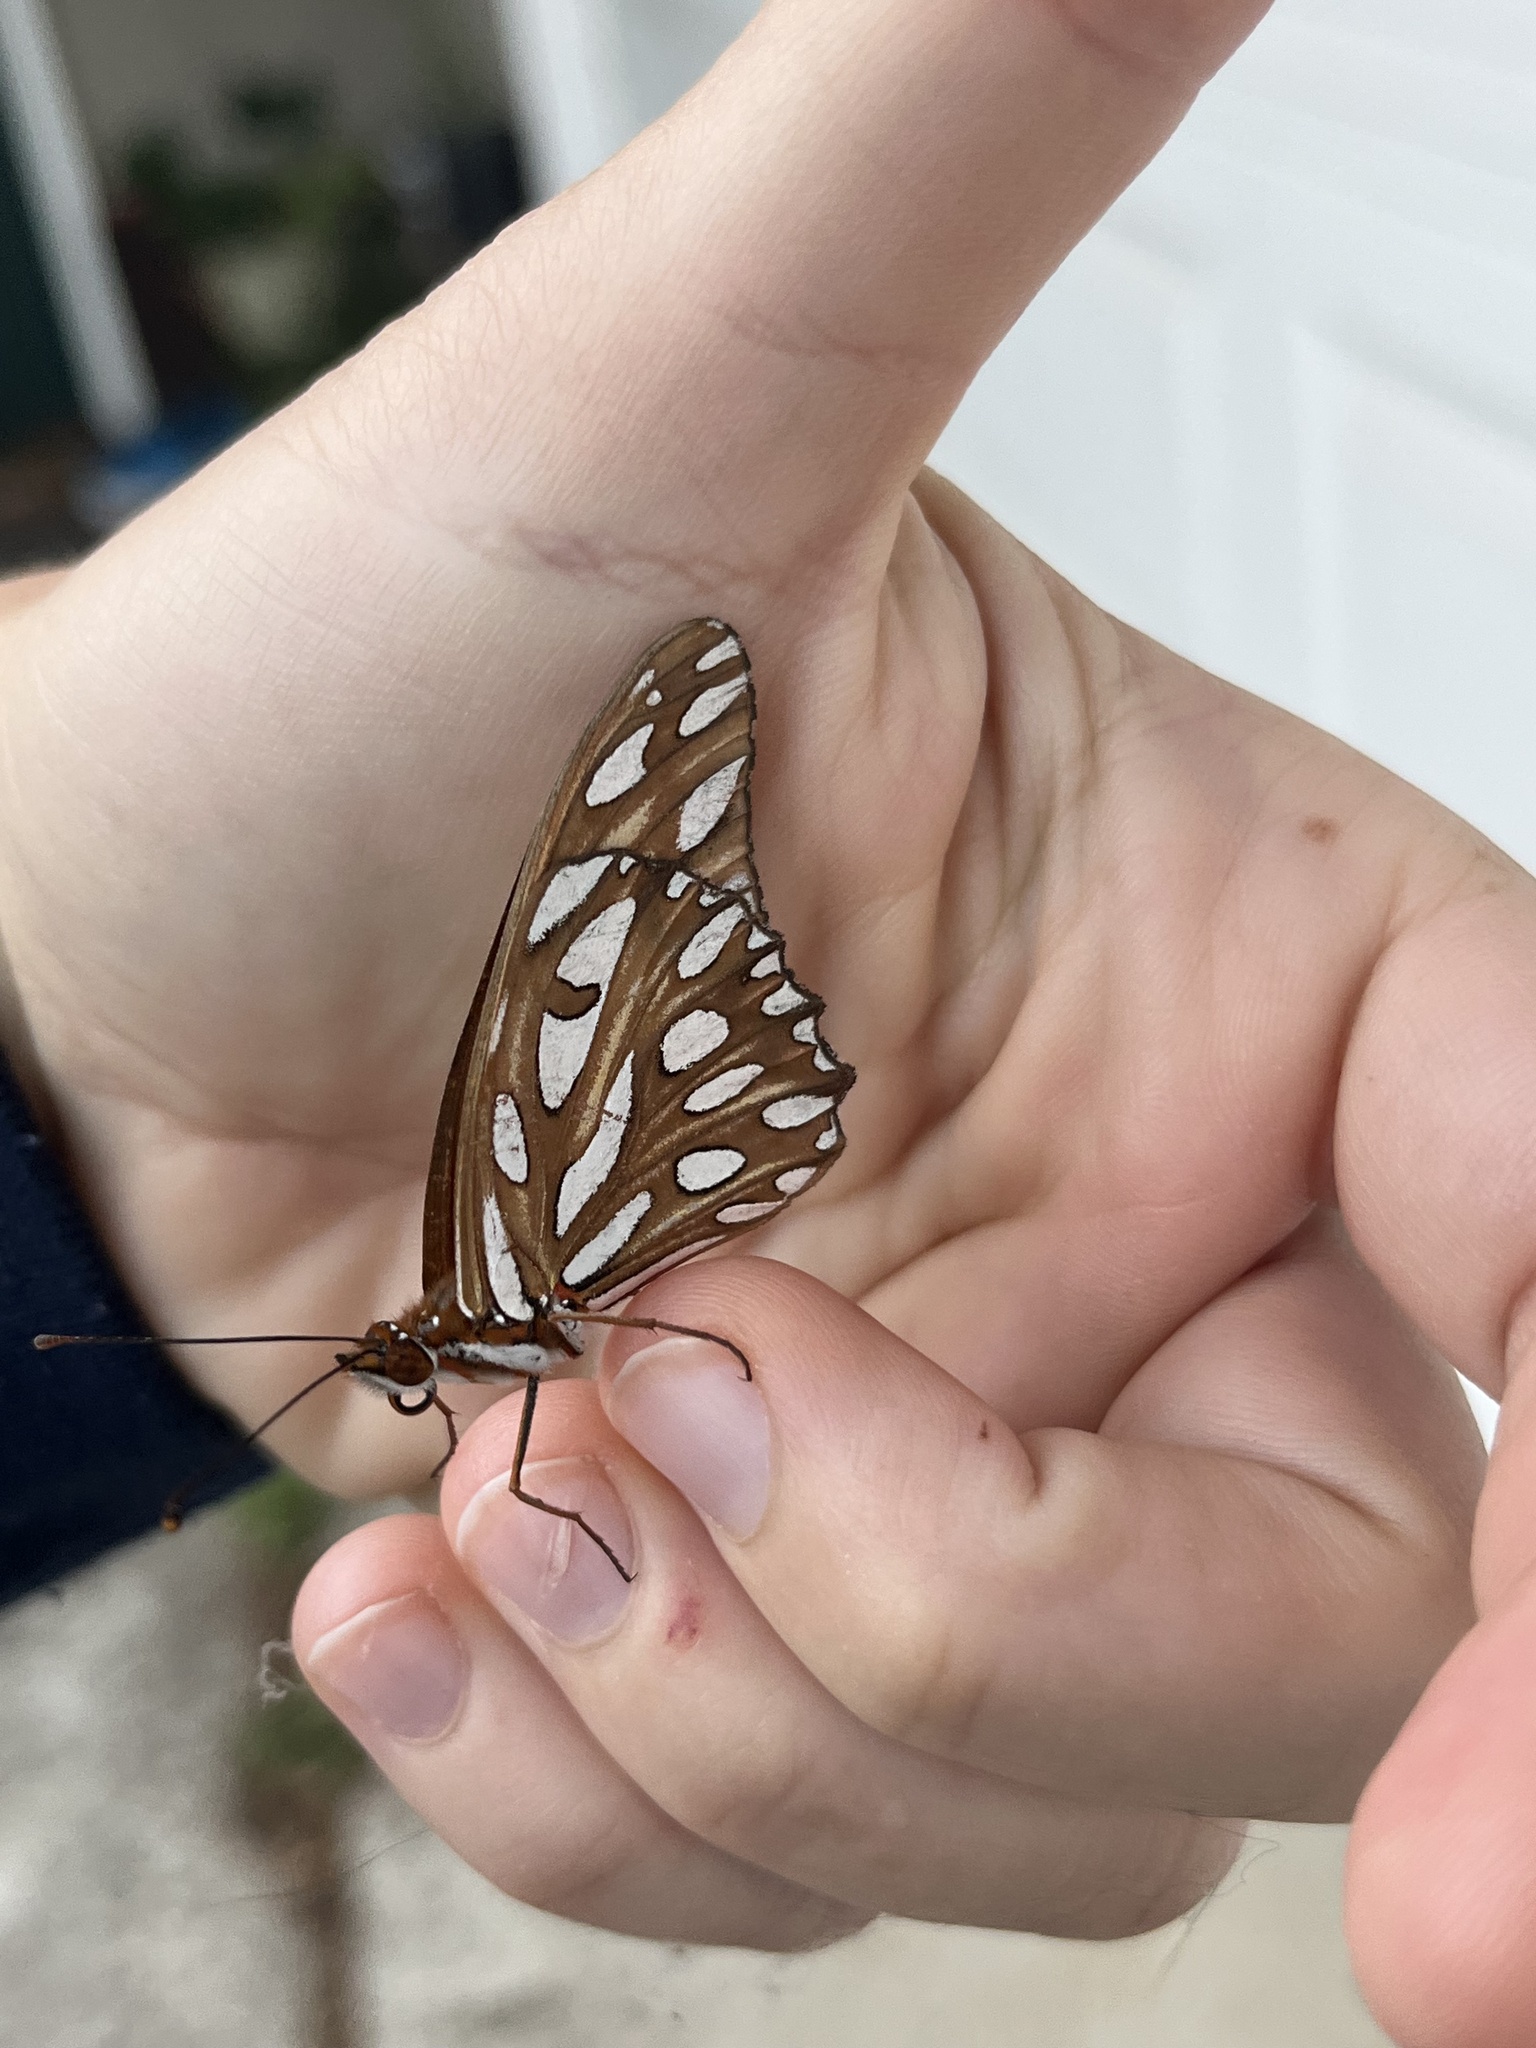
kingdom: Animalia
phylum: Arthropoda
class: Insecta
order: Lepidoptera
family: Nymphalidae
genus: Dione
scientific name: Dione vanillae
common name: Gulf fritillary
